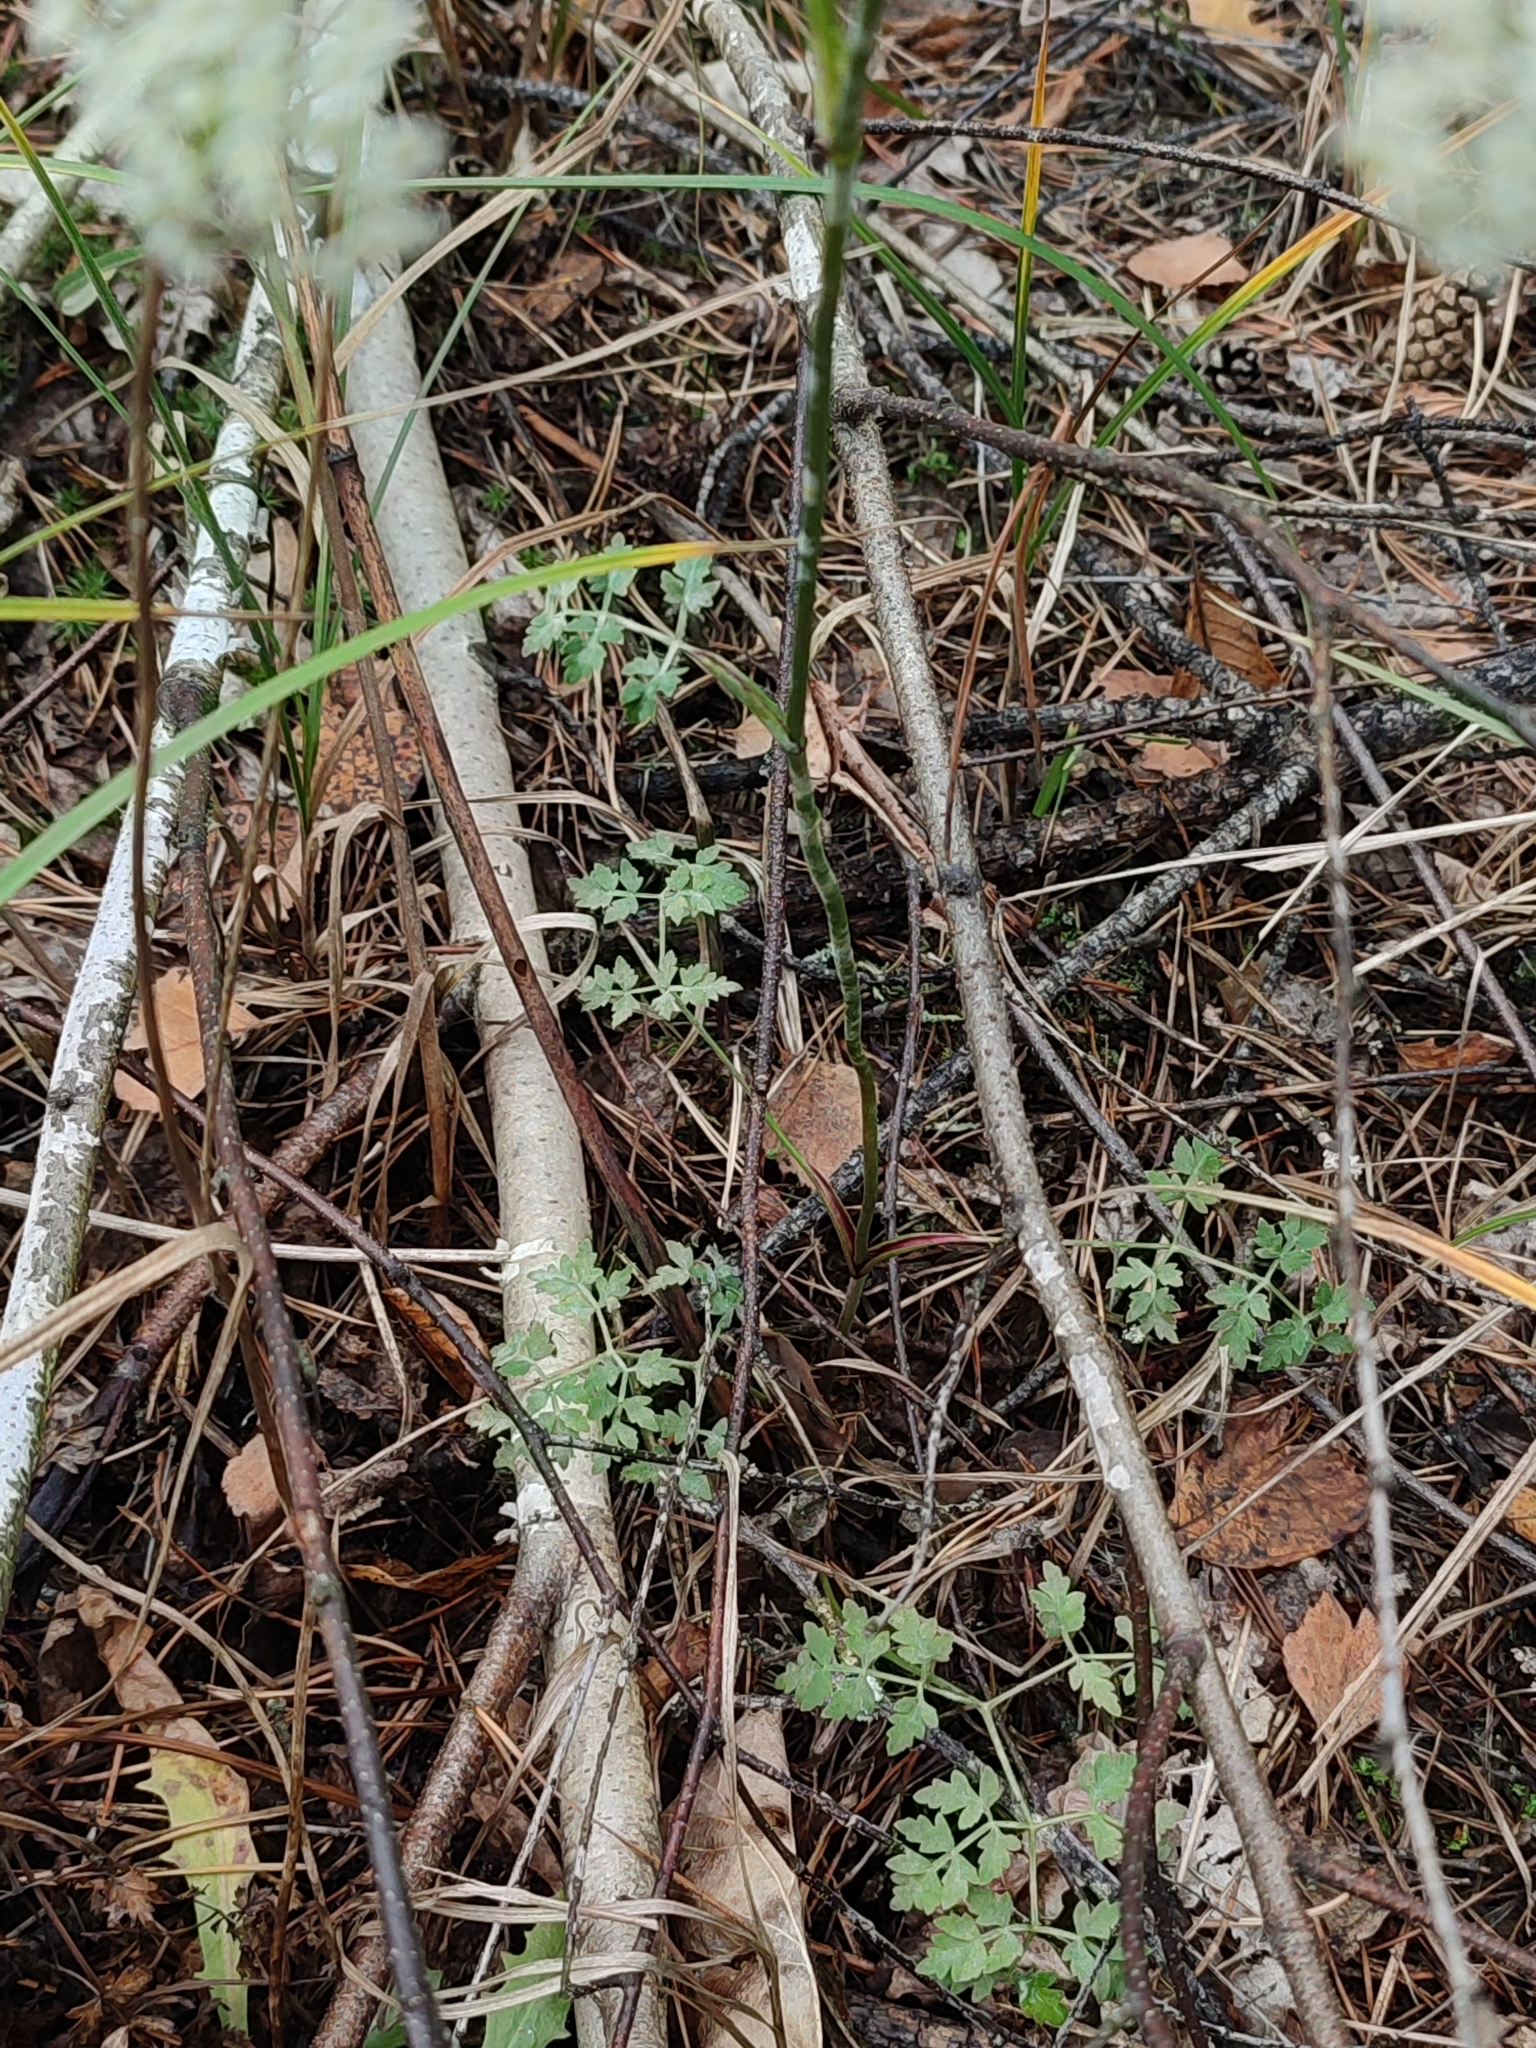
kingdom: Plantae
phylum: Tracheophyta
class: Magnoliopsida
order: Apiales
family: Apiaceae
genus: Oreoselinum
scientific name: Oreoselinum nigrum
